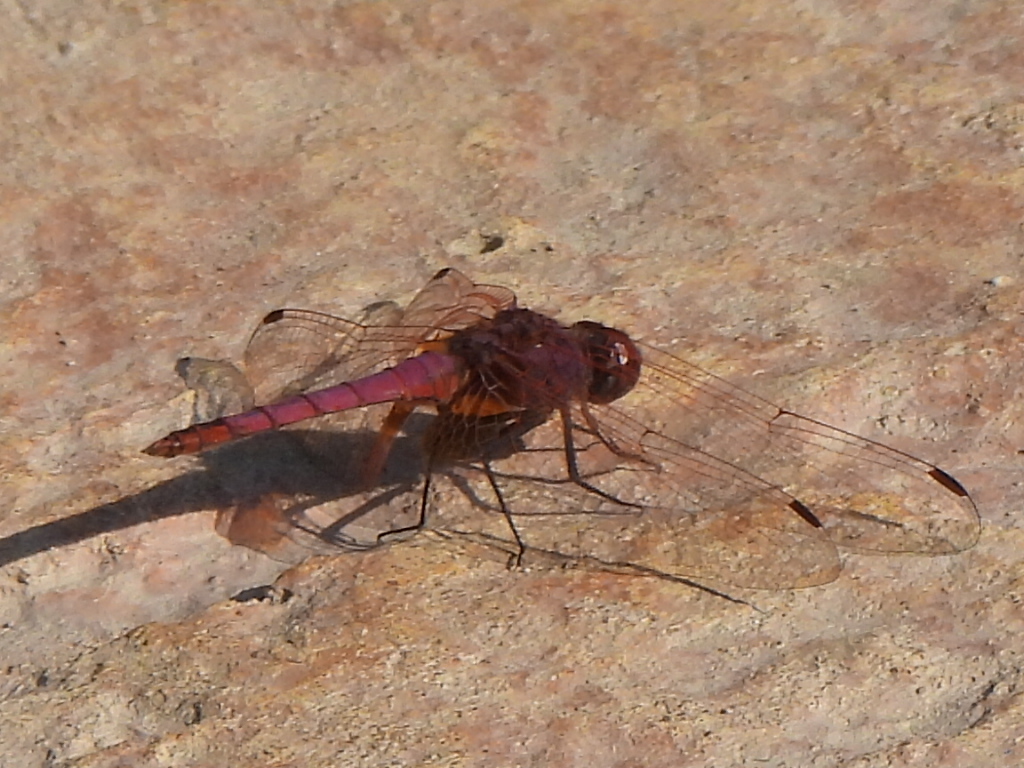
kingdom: Animalia
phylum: Arthropoda
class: Insecta
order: Odonata
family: Libellulidae
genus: Trithemis
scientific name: Trithemis annulata
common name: Violet dropwing
